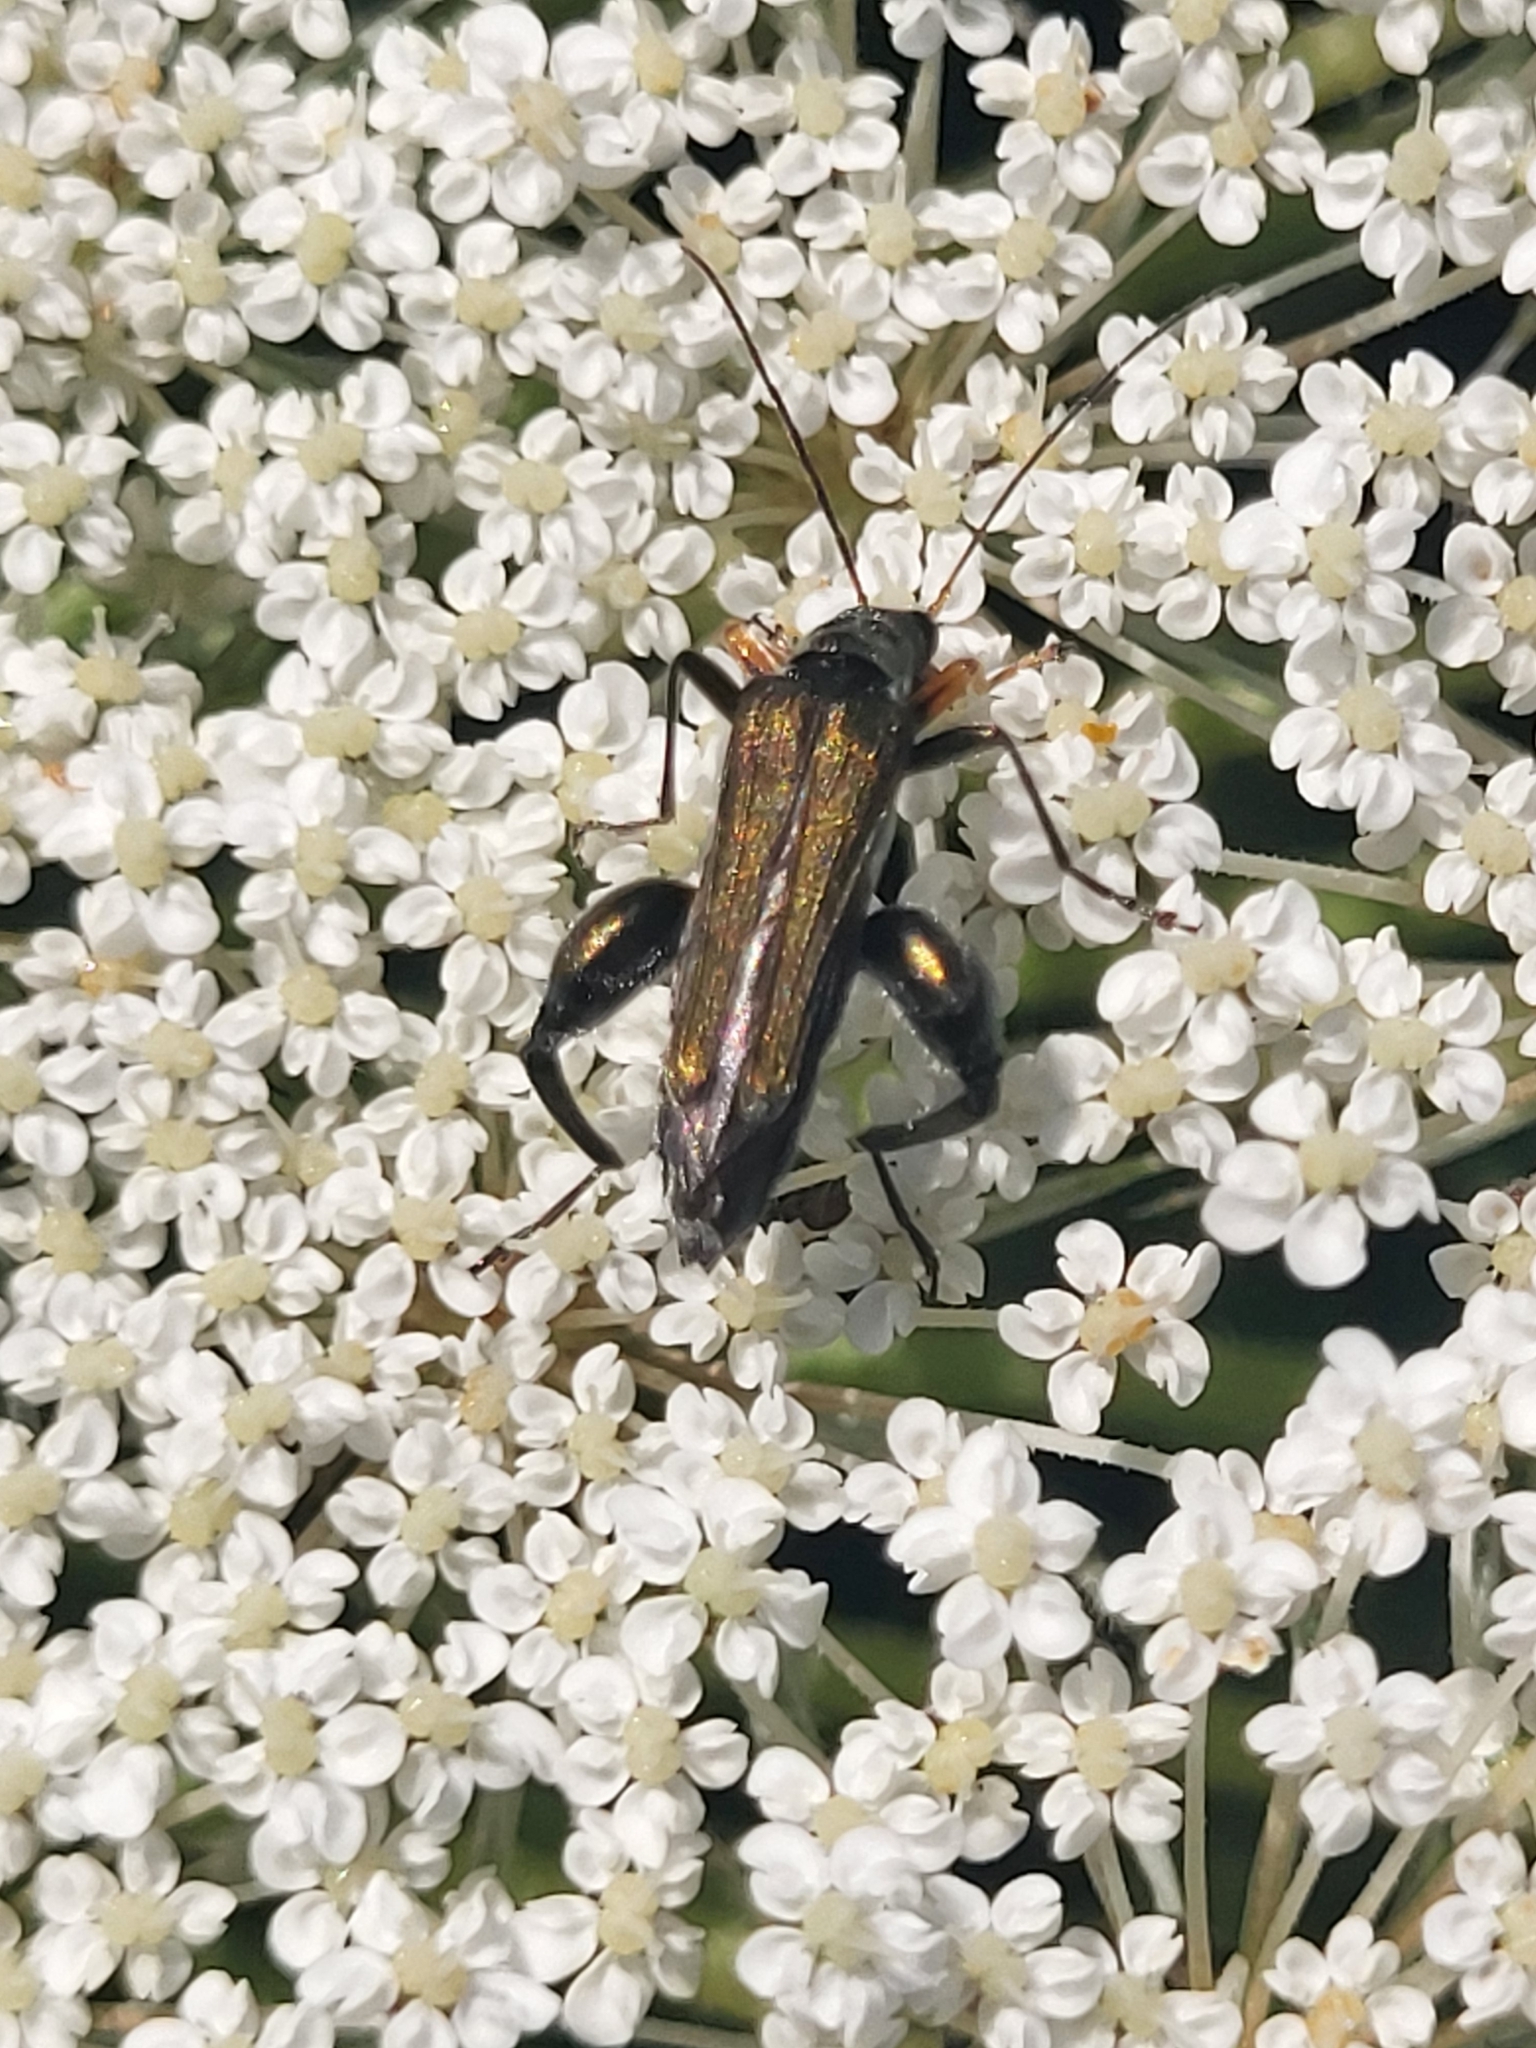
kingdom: Animalia
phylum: Arthropoda
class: Insecta
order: Coleoptera
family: Oedemeridae
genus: Oedemera
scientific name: Oedemera flavipes
